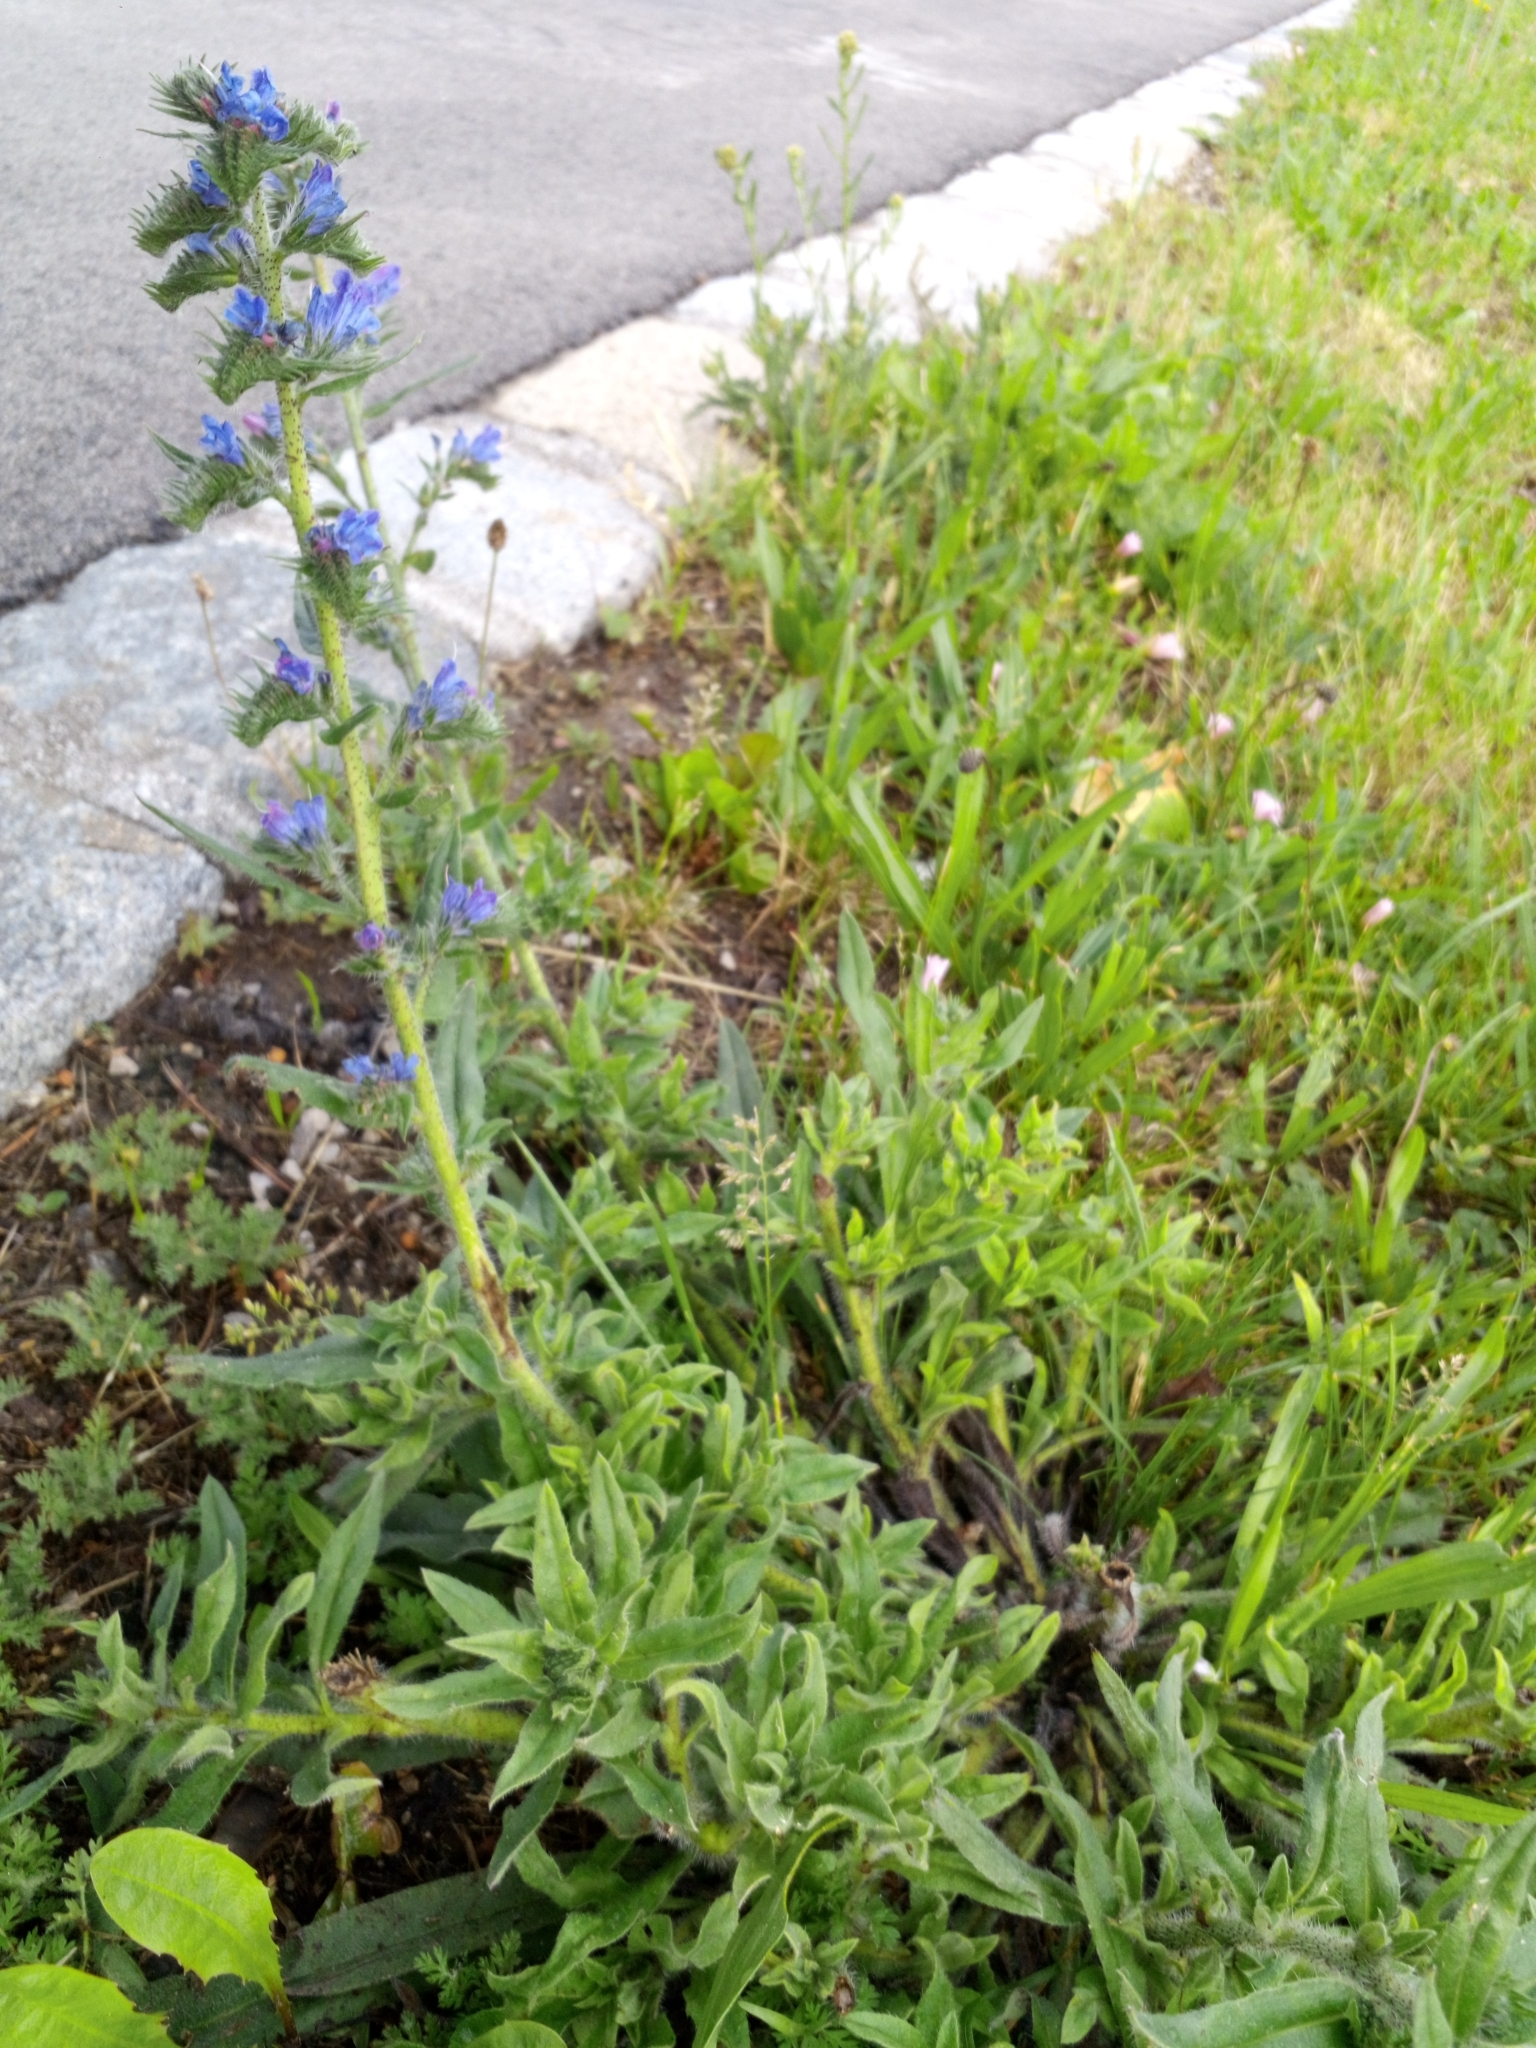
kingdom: Plantae
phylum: Tracheophyta
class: Magnoliopsida
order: Boraginales
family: Boraginaceae
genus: Echium
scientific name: Echium vulgare
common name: Common viper's bugloss
